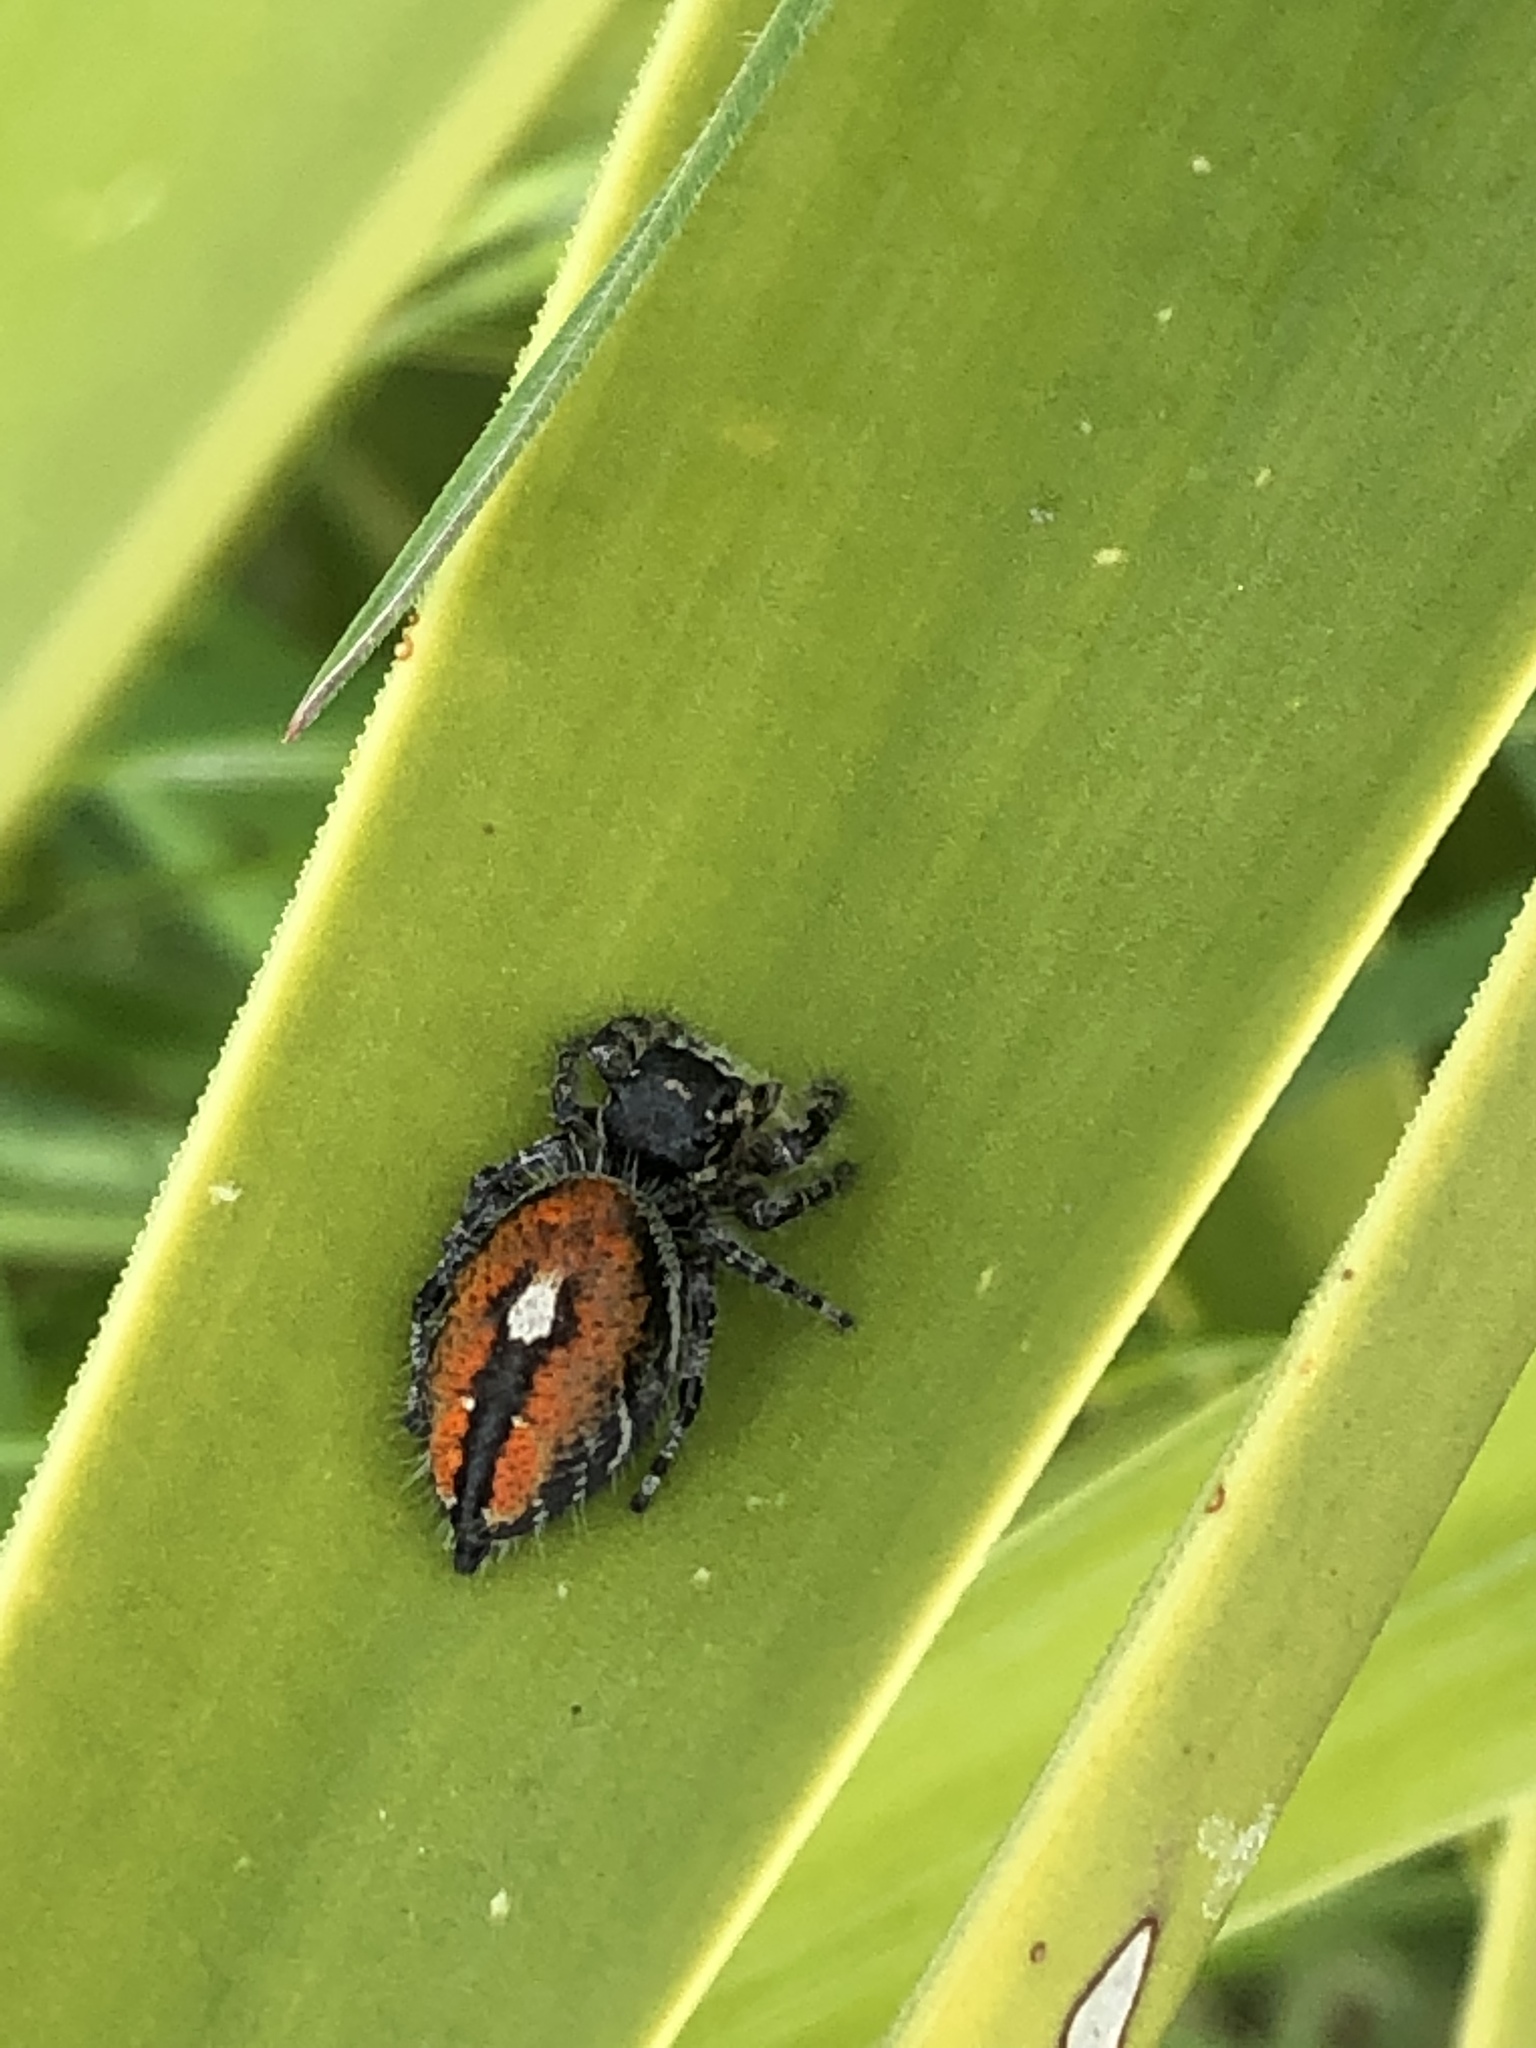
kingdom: Animalia
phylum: Arthropoda
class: Arachnida
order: Araneae
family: Salticidae
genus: Phidippus
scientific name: Phidippus phoenix
